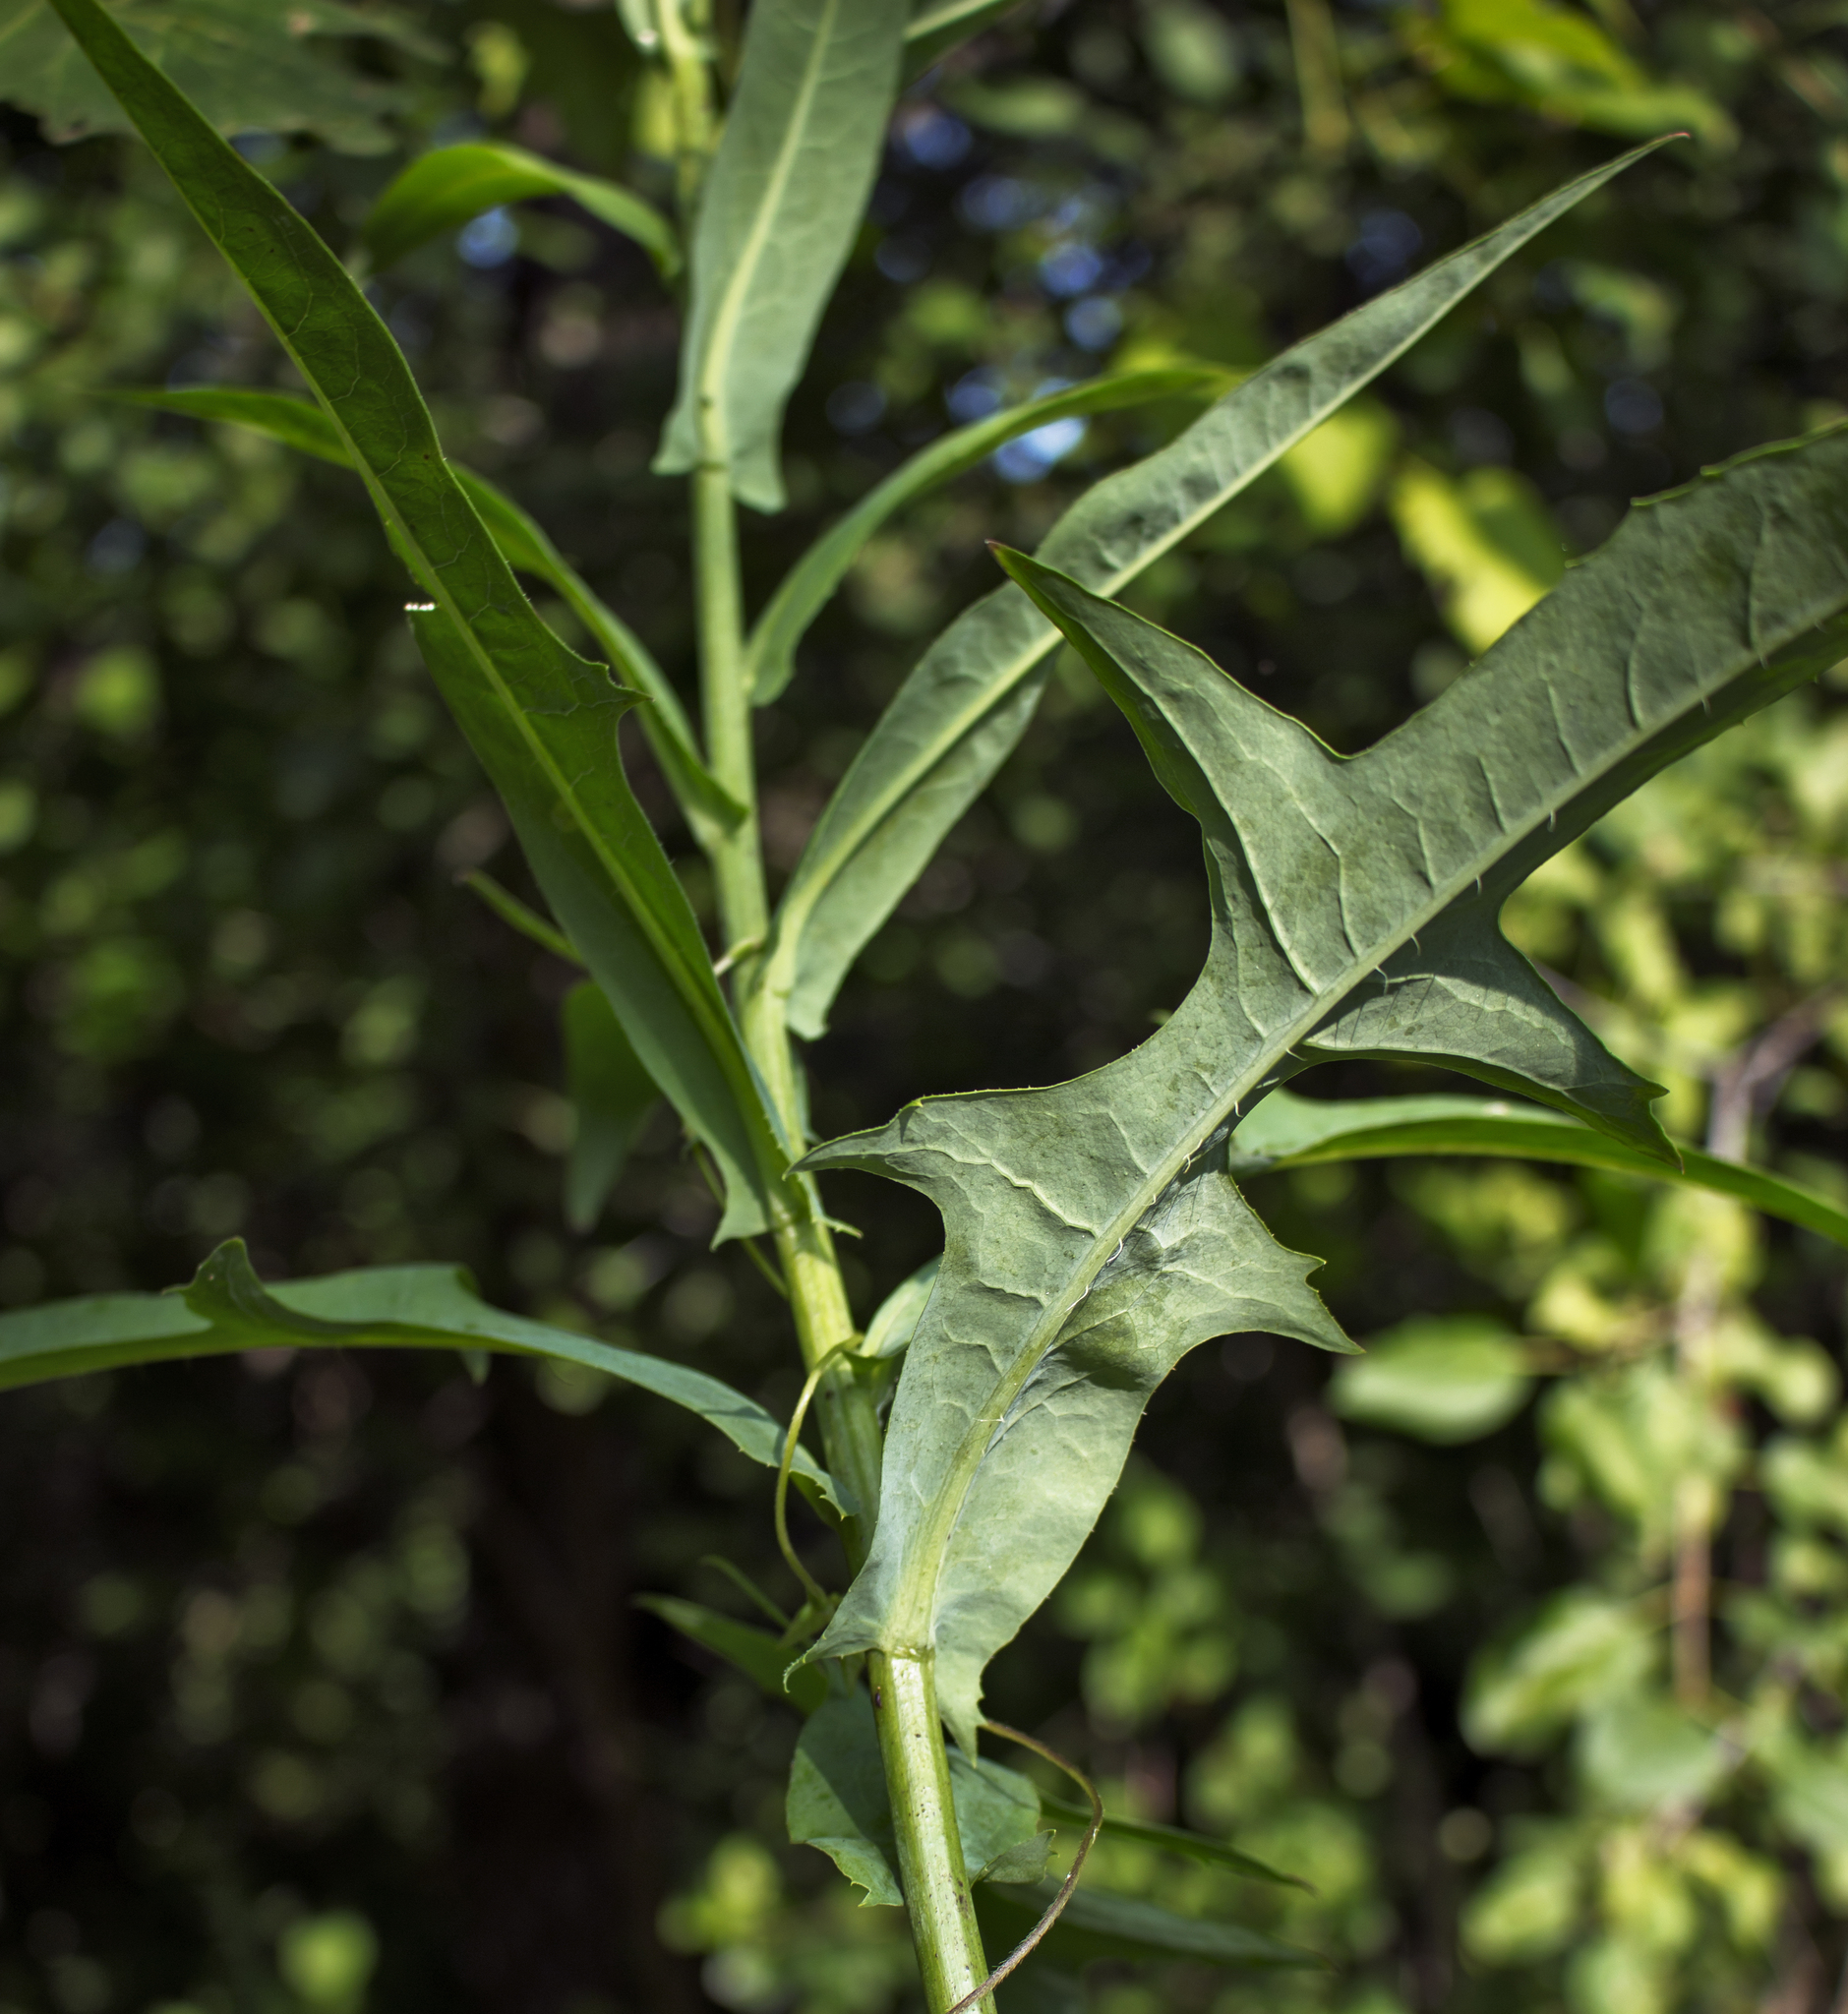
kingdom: Plantae
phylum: Tracheophyta
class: Magnoliopsida
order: Asterales
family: Asteraceae
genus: Lactuca
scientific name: Lactuca canadensis
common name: Canada lettuce
